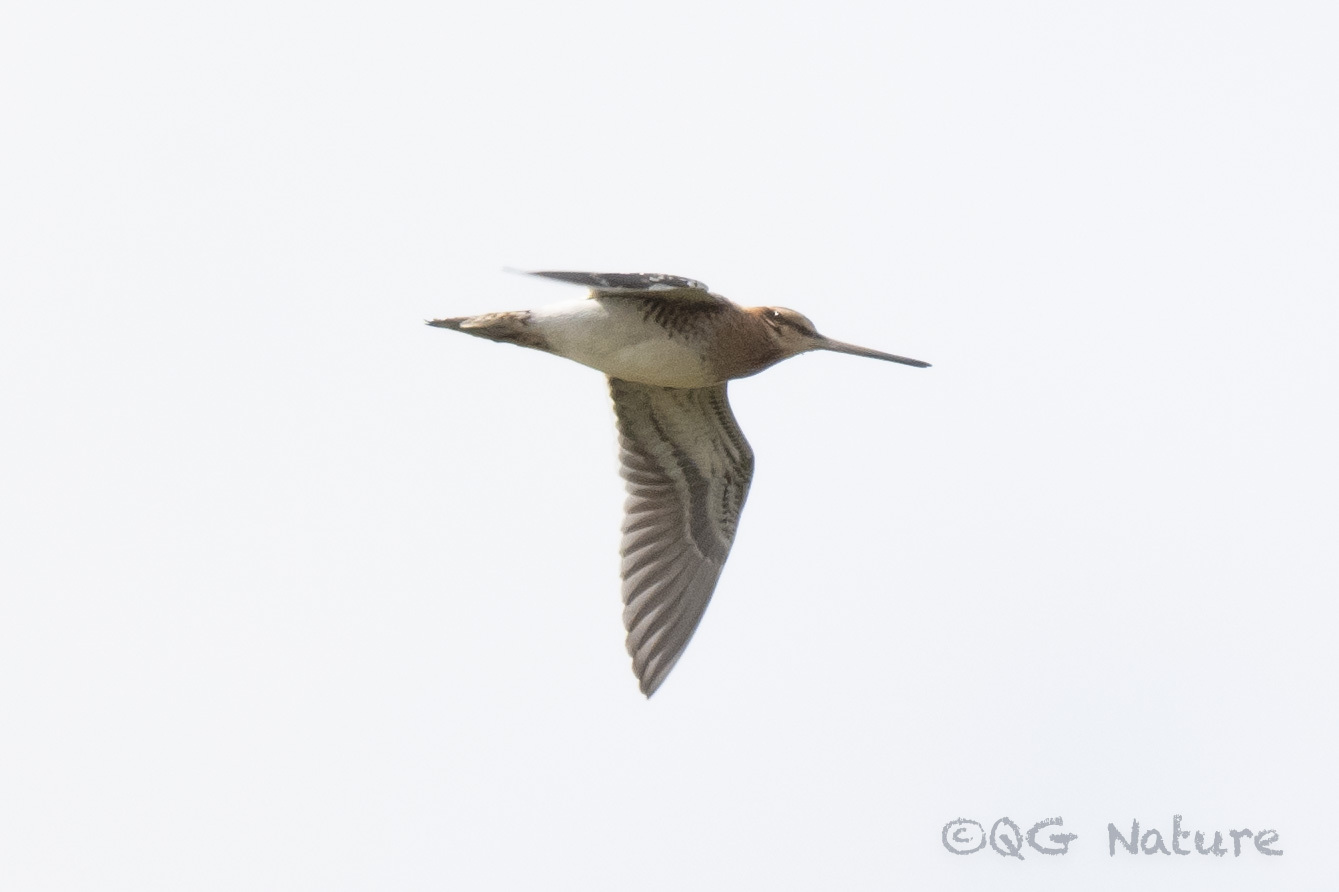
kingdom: Animalia
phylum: Chordata
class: Aves
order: Charadriiformes
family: Scolopacidae
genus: Gallinago
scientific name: Gallinago gallinago
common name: Common snipe
